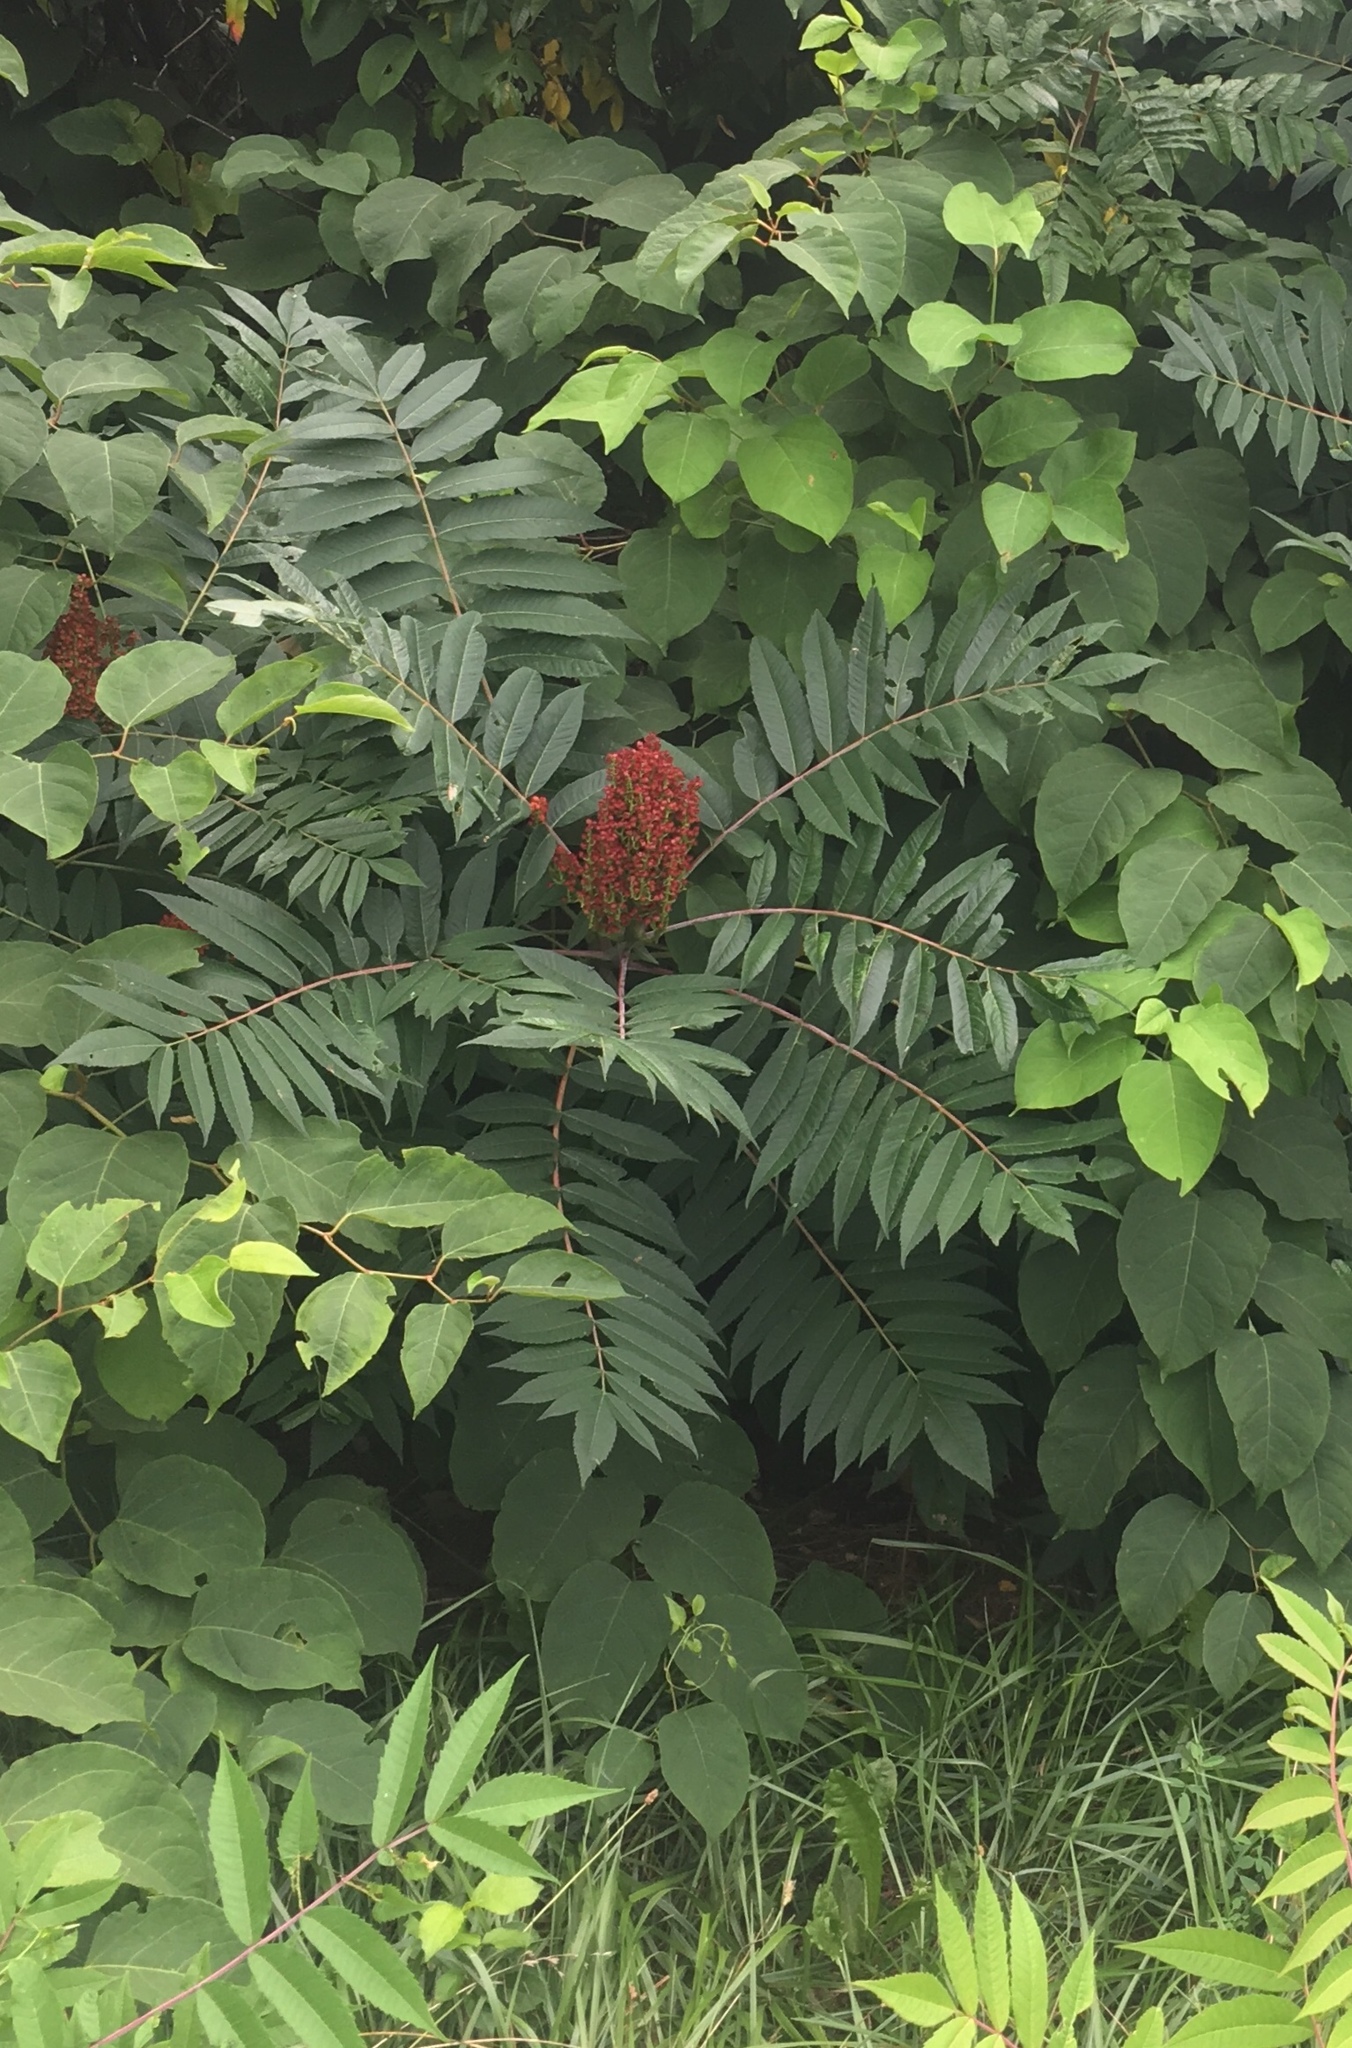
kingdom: Plantae
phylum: Tracheophyta
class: Magnoliopsida
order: Sapindales
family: Anacardiaceae
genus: Rhus
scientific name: Rhus glabra
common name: Scarlet sumac
